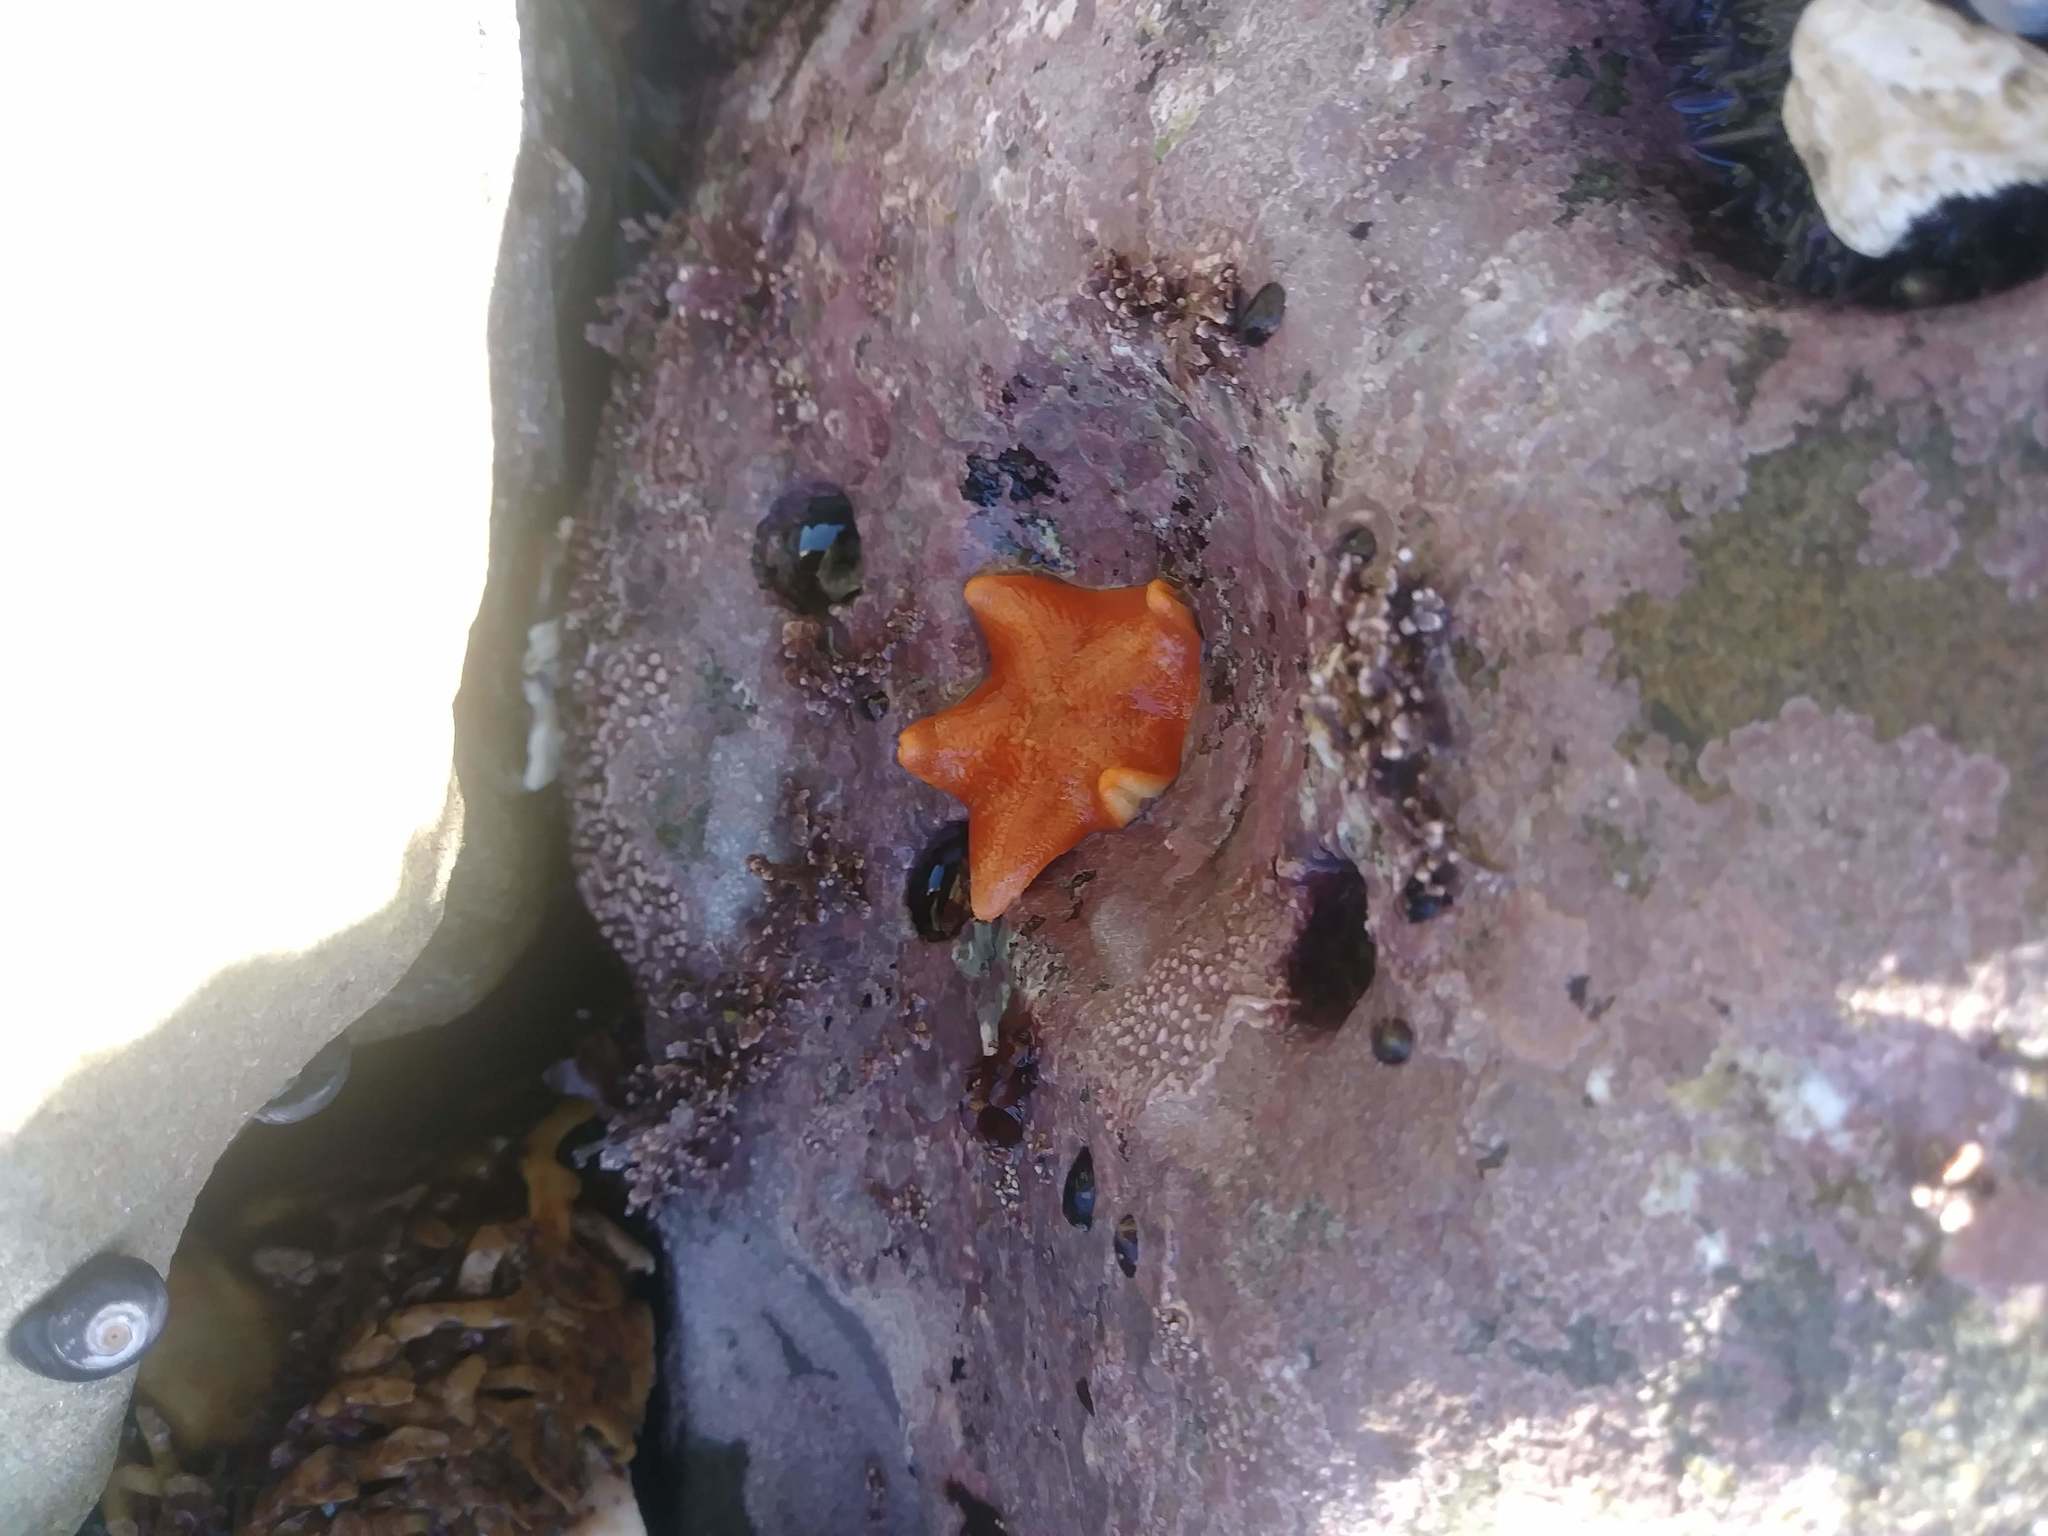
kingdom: Animalia
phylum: Echinodermata
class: Asteroidea
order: Valvatida
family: Asterinidae
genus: Patiria
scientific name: Patiria miniata
